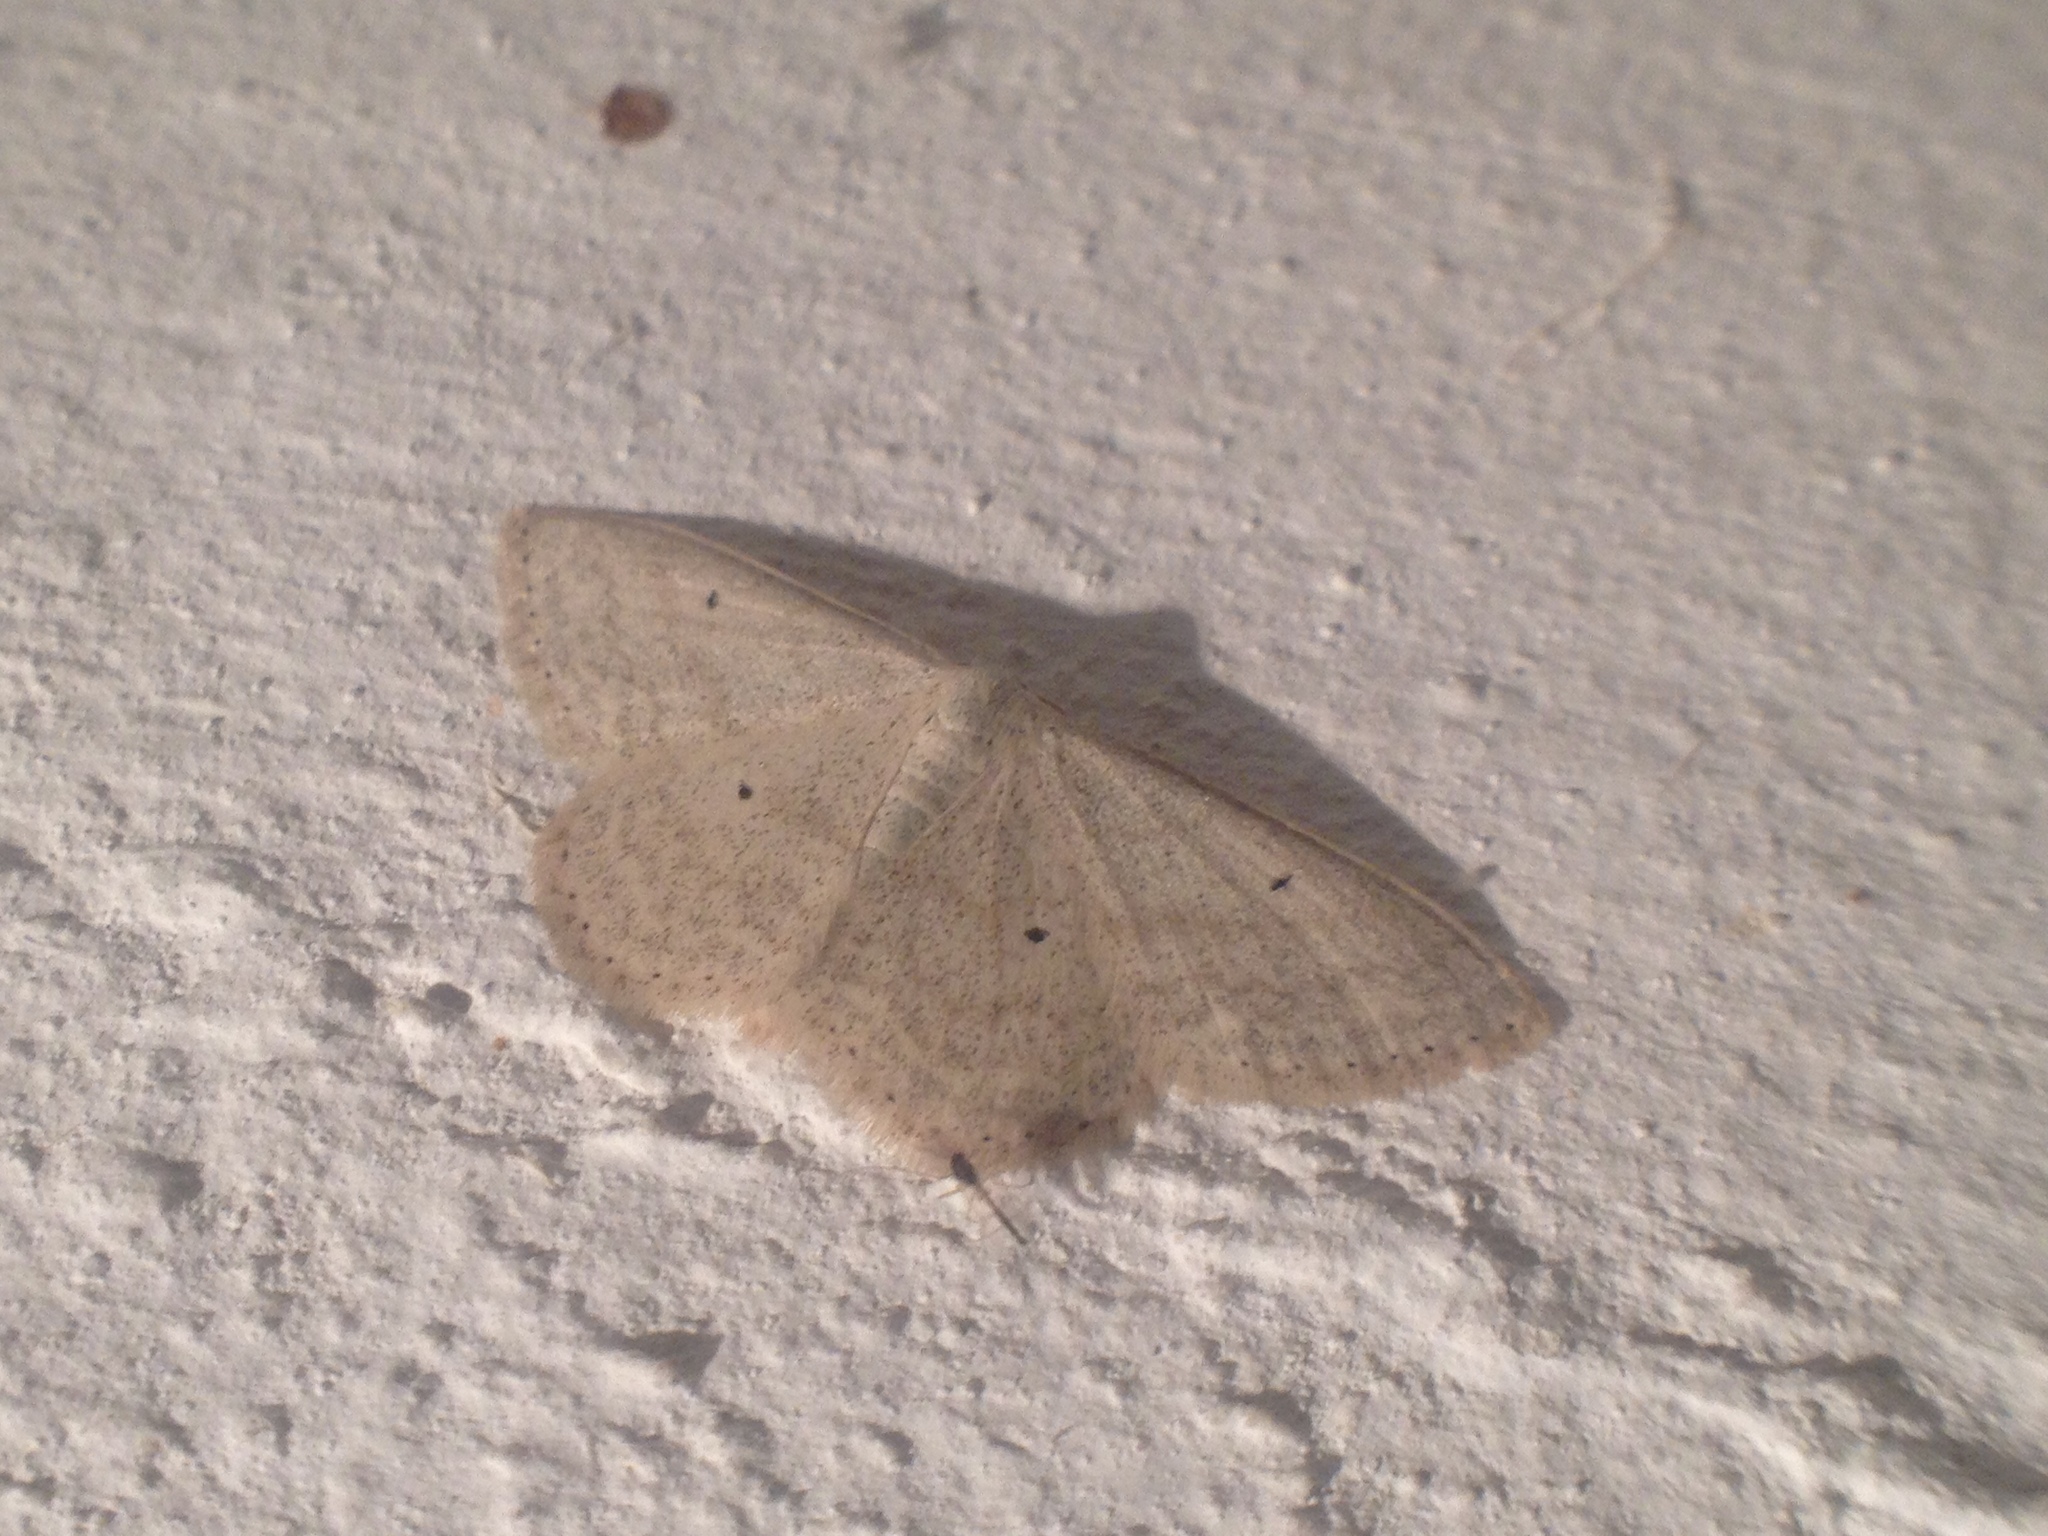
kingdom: Animalia
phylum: Arthropoda
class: Insecta
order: Lepidoptera
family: Geometridae
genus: Scopula
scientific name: Scopula incanata
